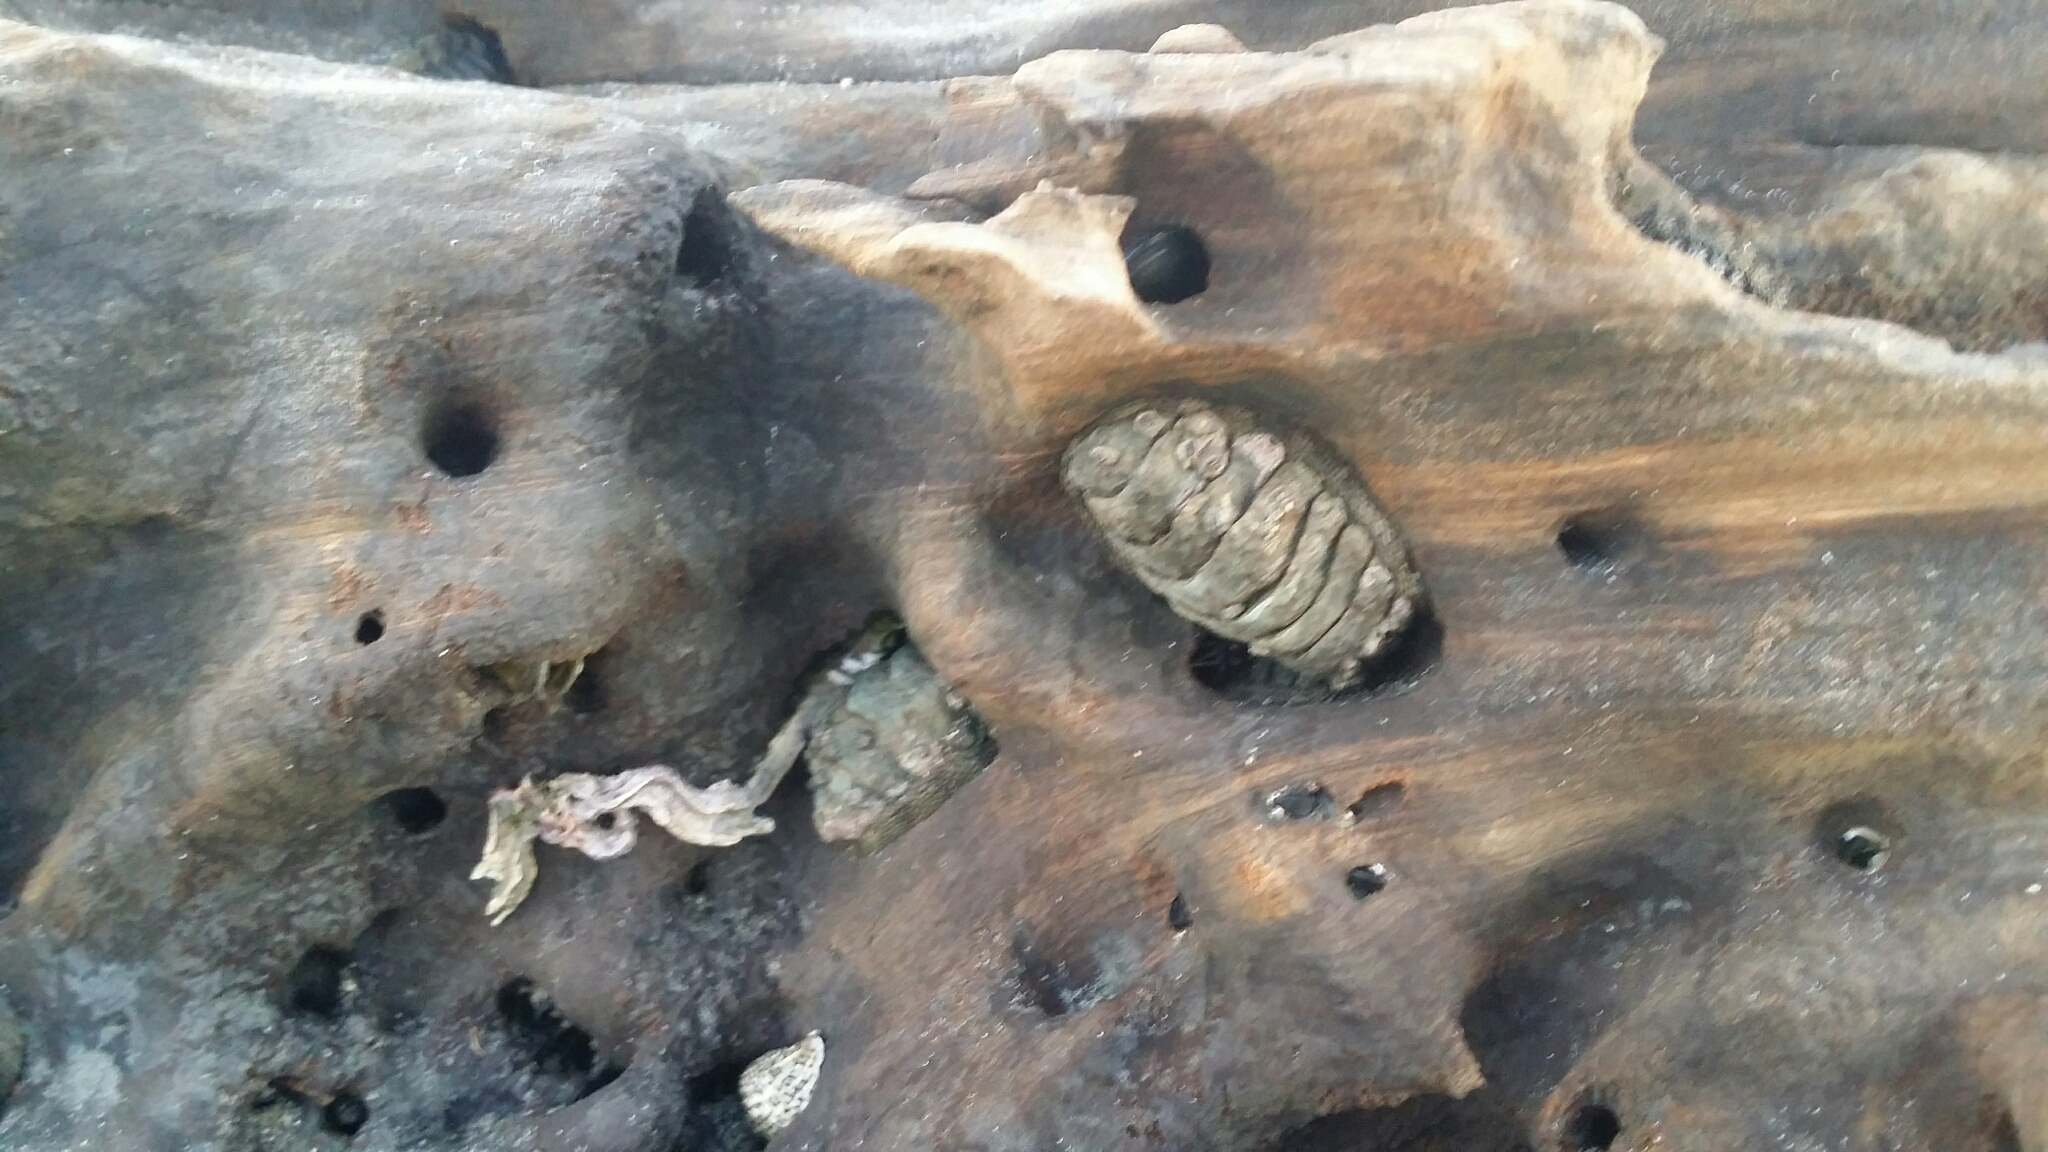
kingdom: Animalia
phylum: Mollusca
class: Polyplacophora
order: Chitonida
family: Chitonidae
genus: Sypharochiton
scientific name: Sypharochiton pelliserpentis
